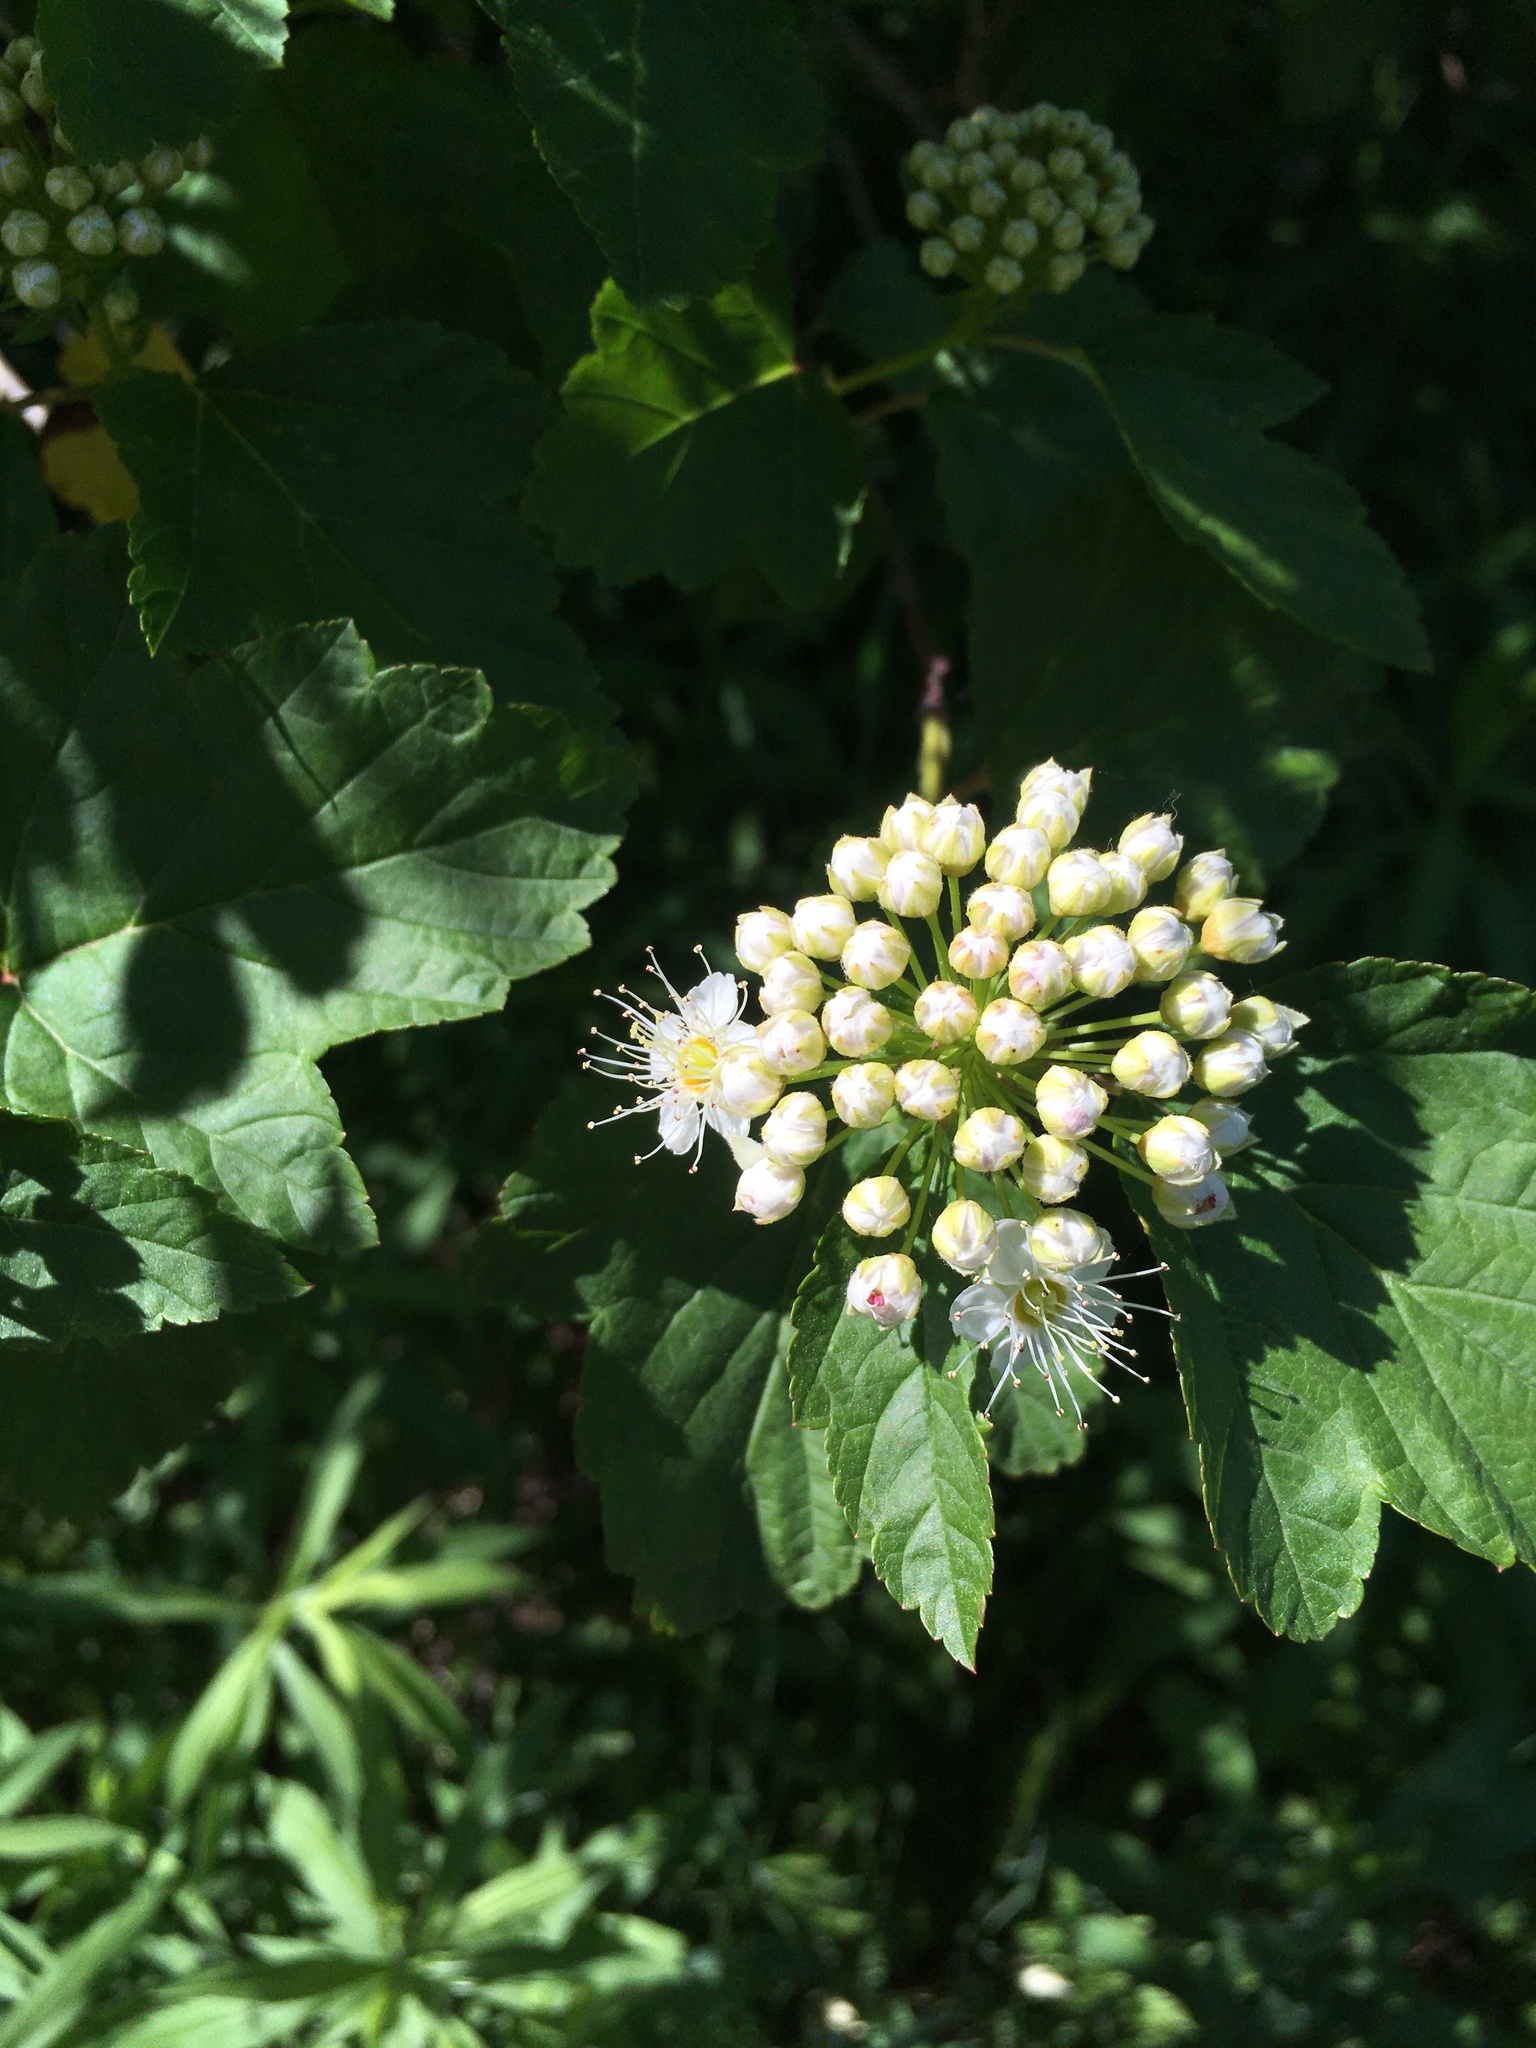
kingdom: Plantae
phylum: Tracheophyta
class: Magnoliopsida
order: Rosales
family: Rosaceae
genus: Physocarpus
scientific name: Physocarpus opulifolius
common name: Ninebark
